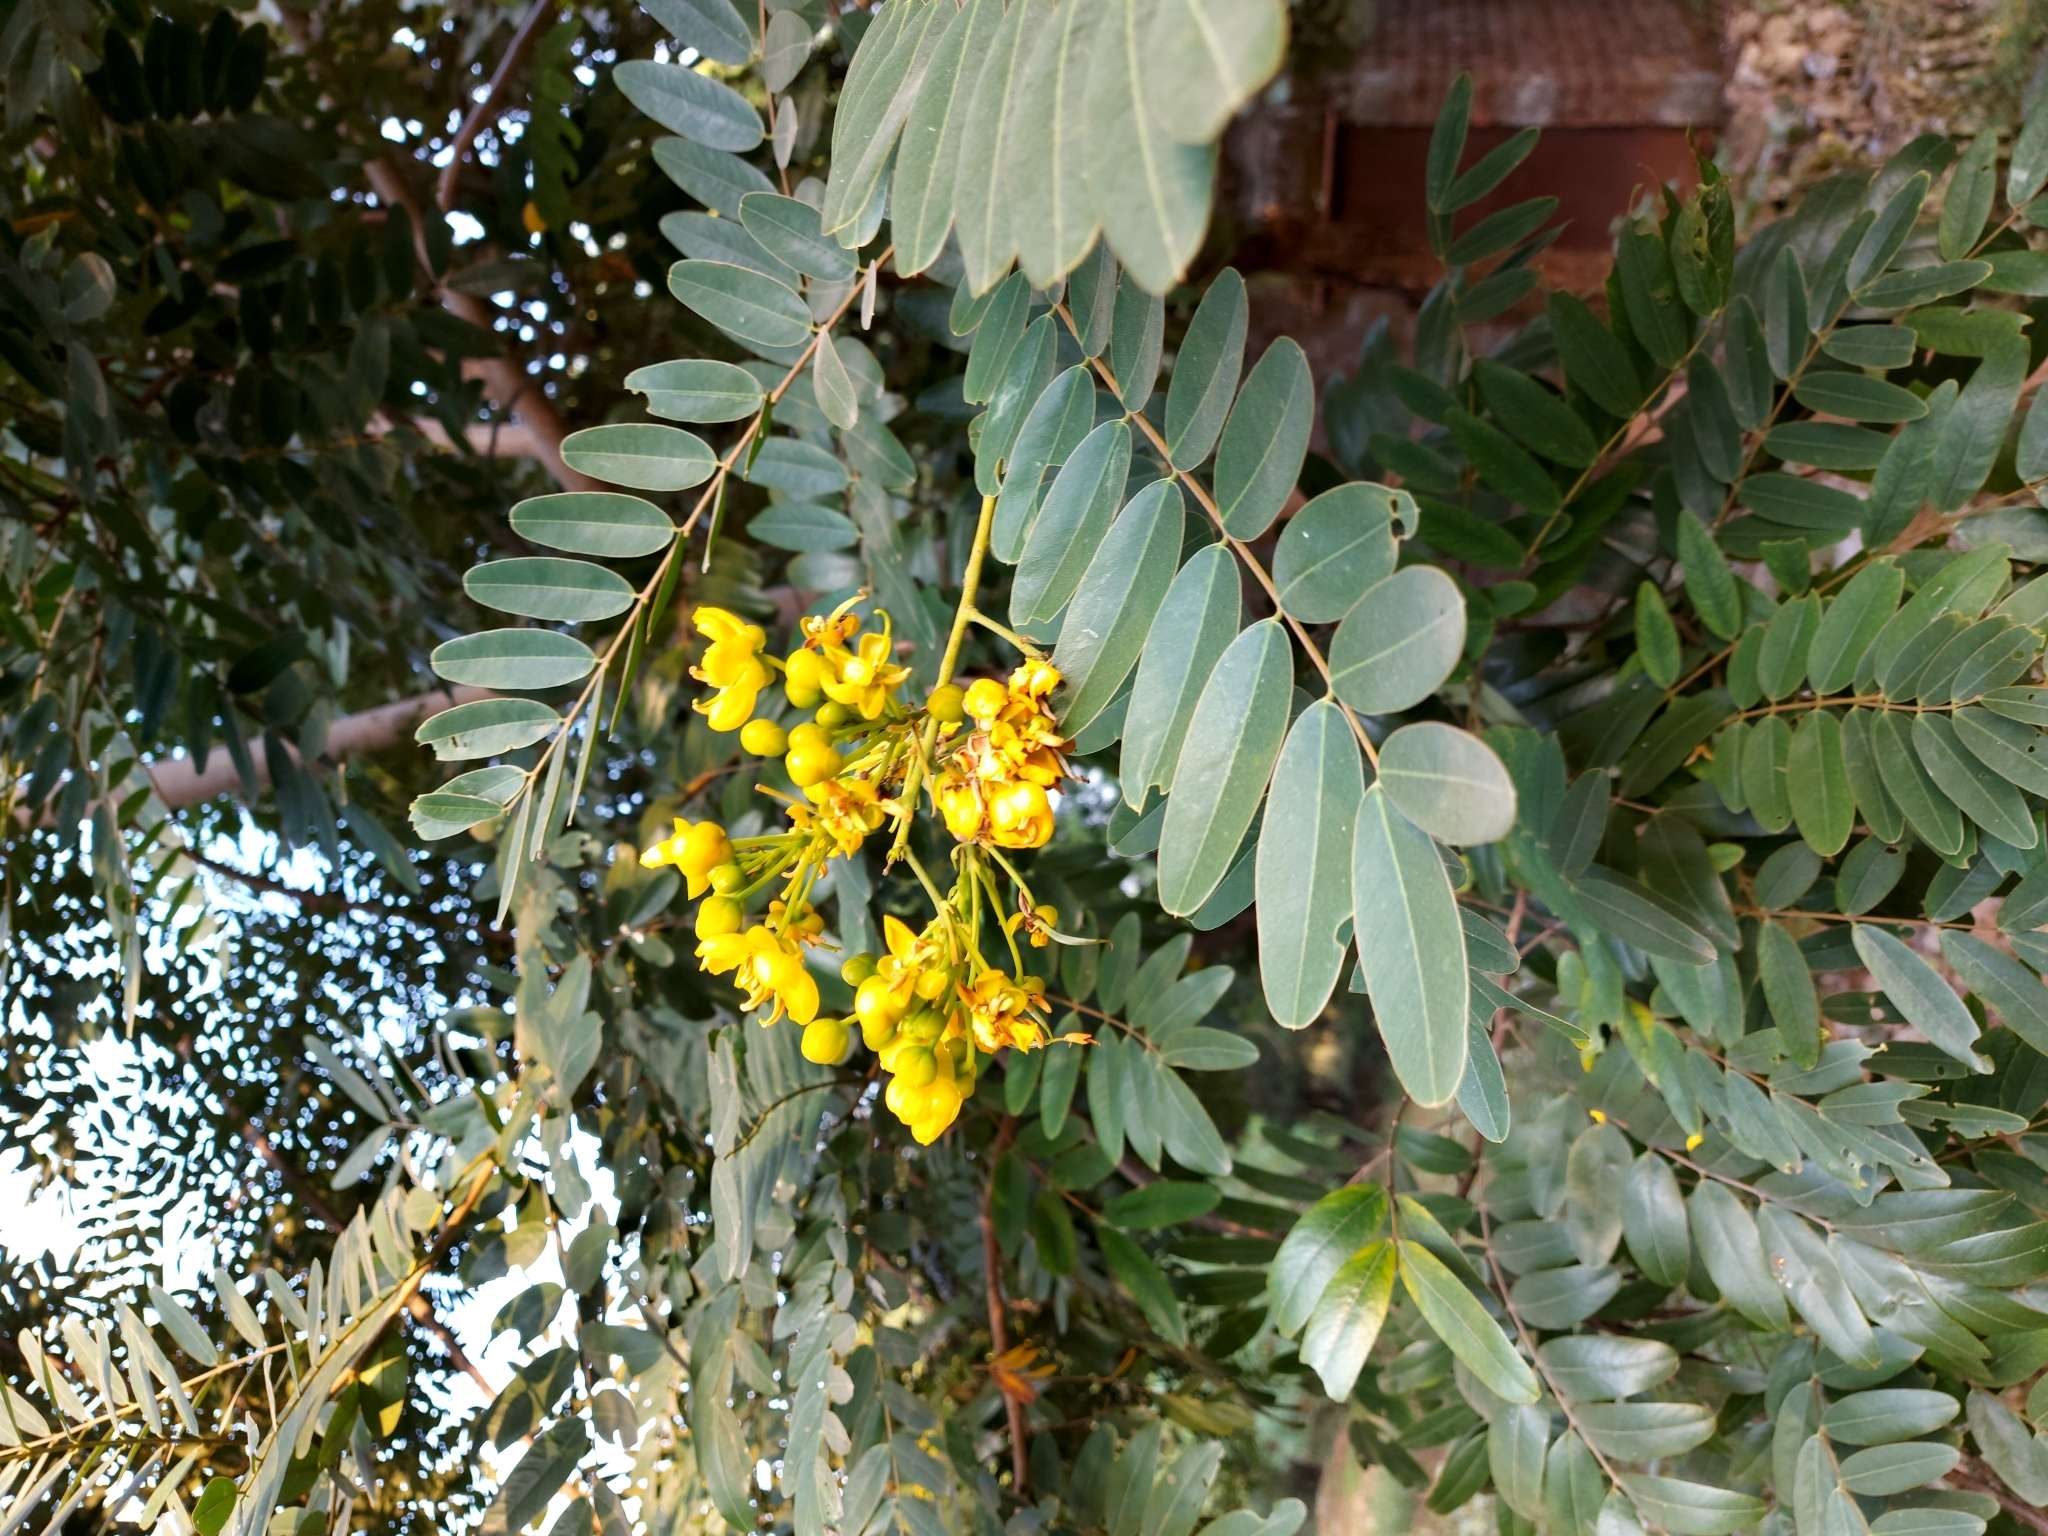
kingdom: Plantae
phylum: Tracheophyta
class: Magnoliopsida
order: Fabales
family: Fabaceae
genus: Senna
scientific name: Senna siamea
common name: Siamese cassia
